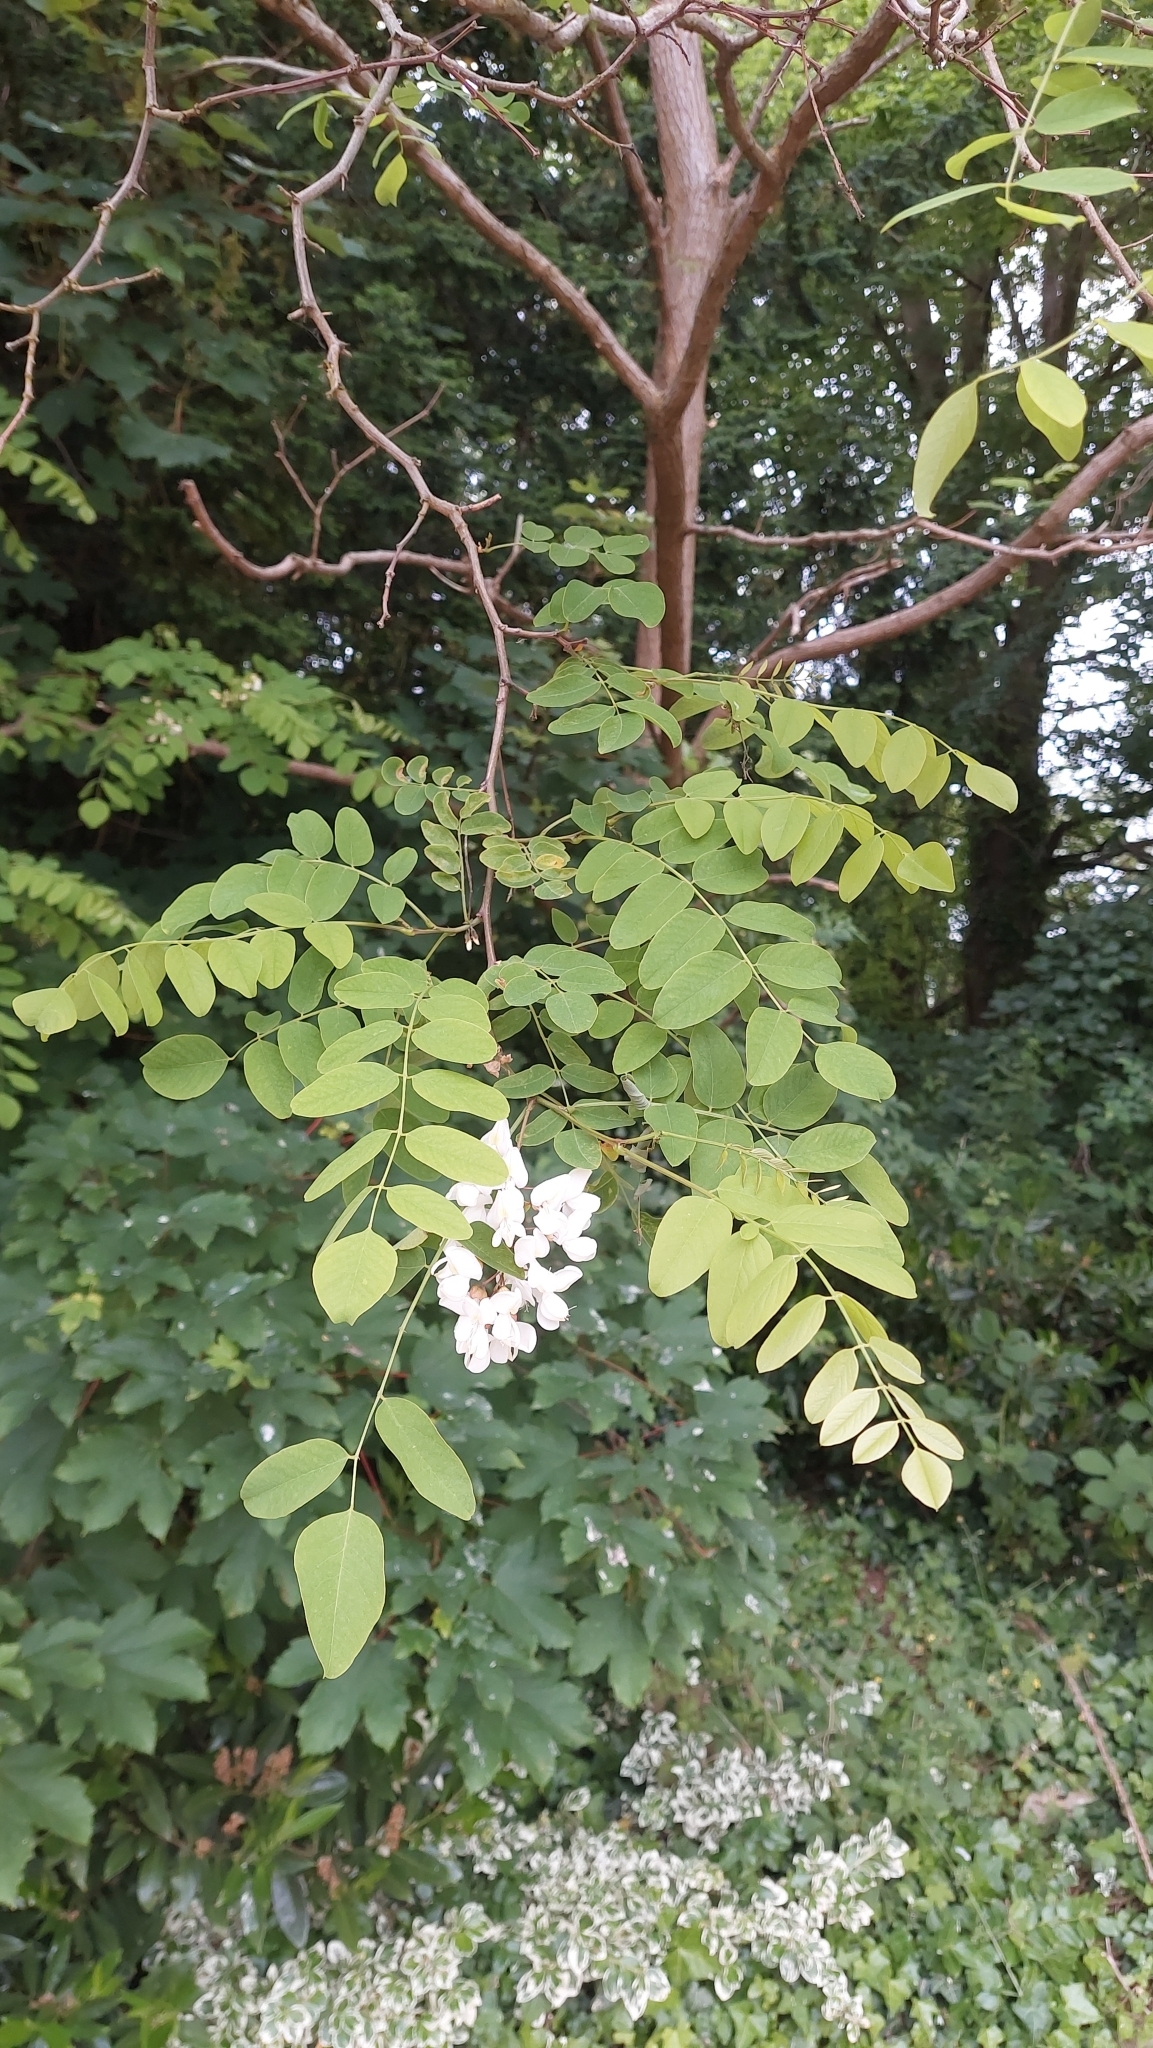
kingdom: Plantae
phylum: Tracheophyta
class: Magnoliopsida
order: Fabales
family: Fabaceae
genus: Robinia
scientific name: Robinia pseudoacacia
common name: Black locust
